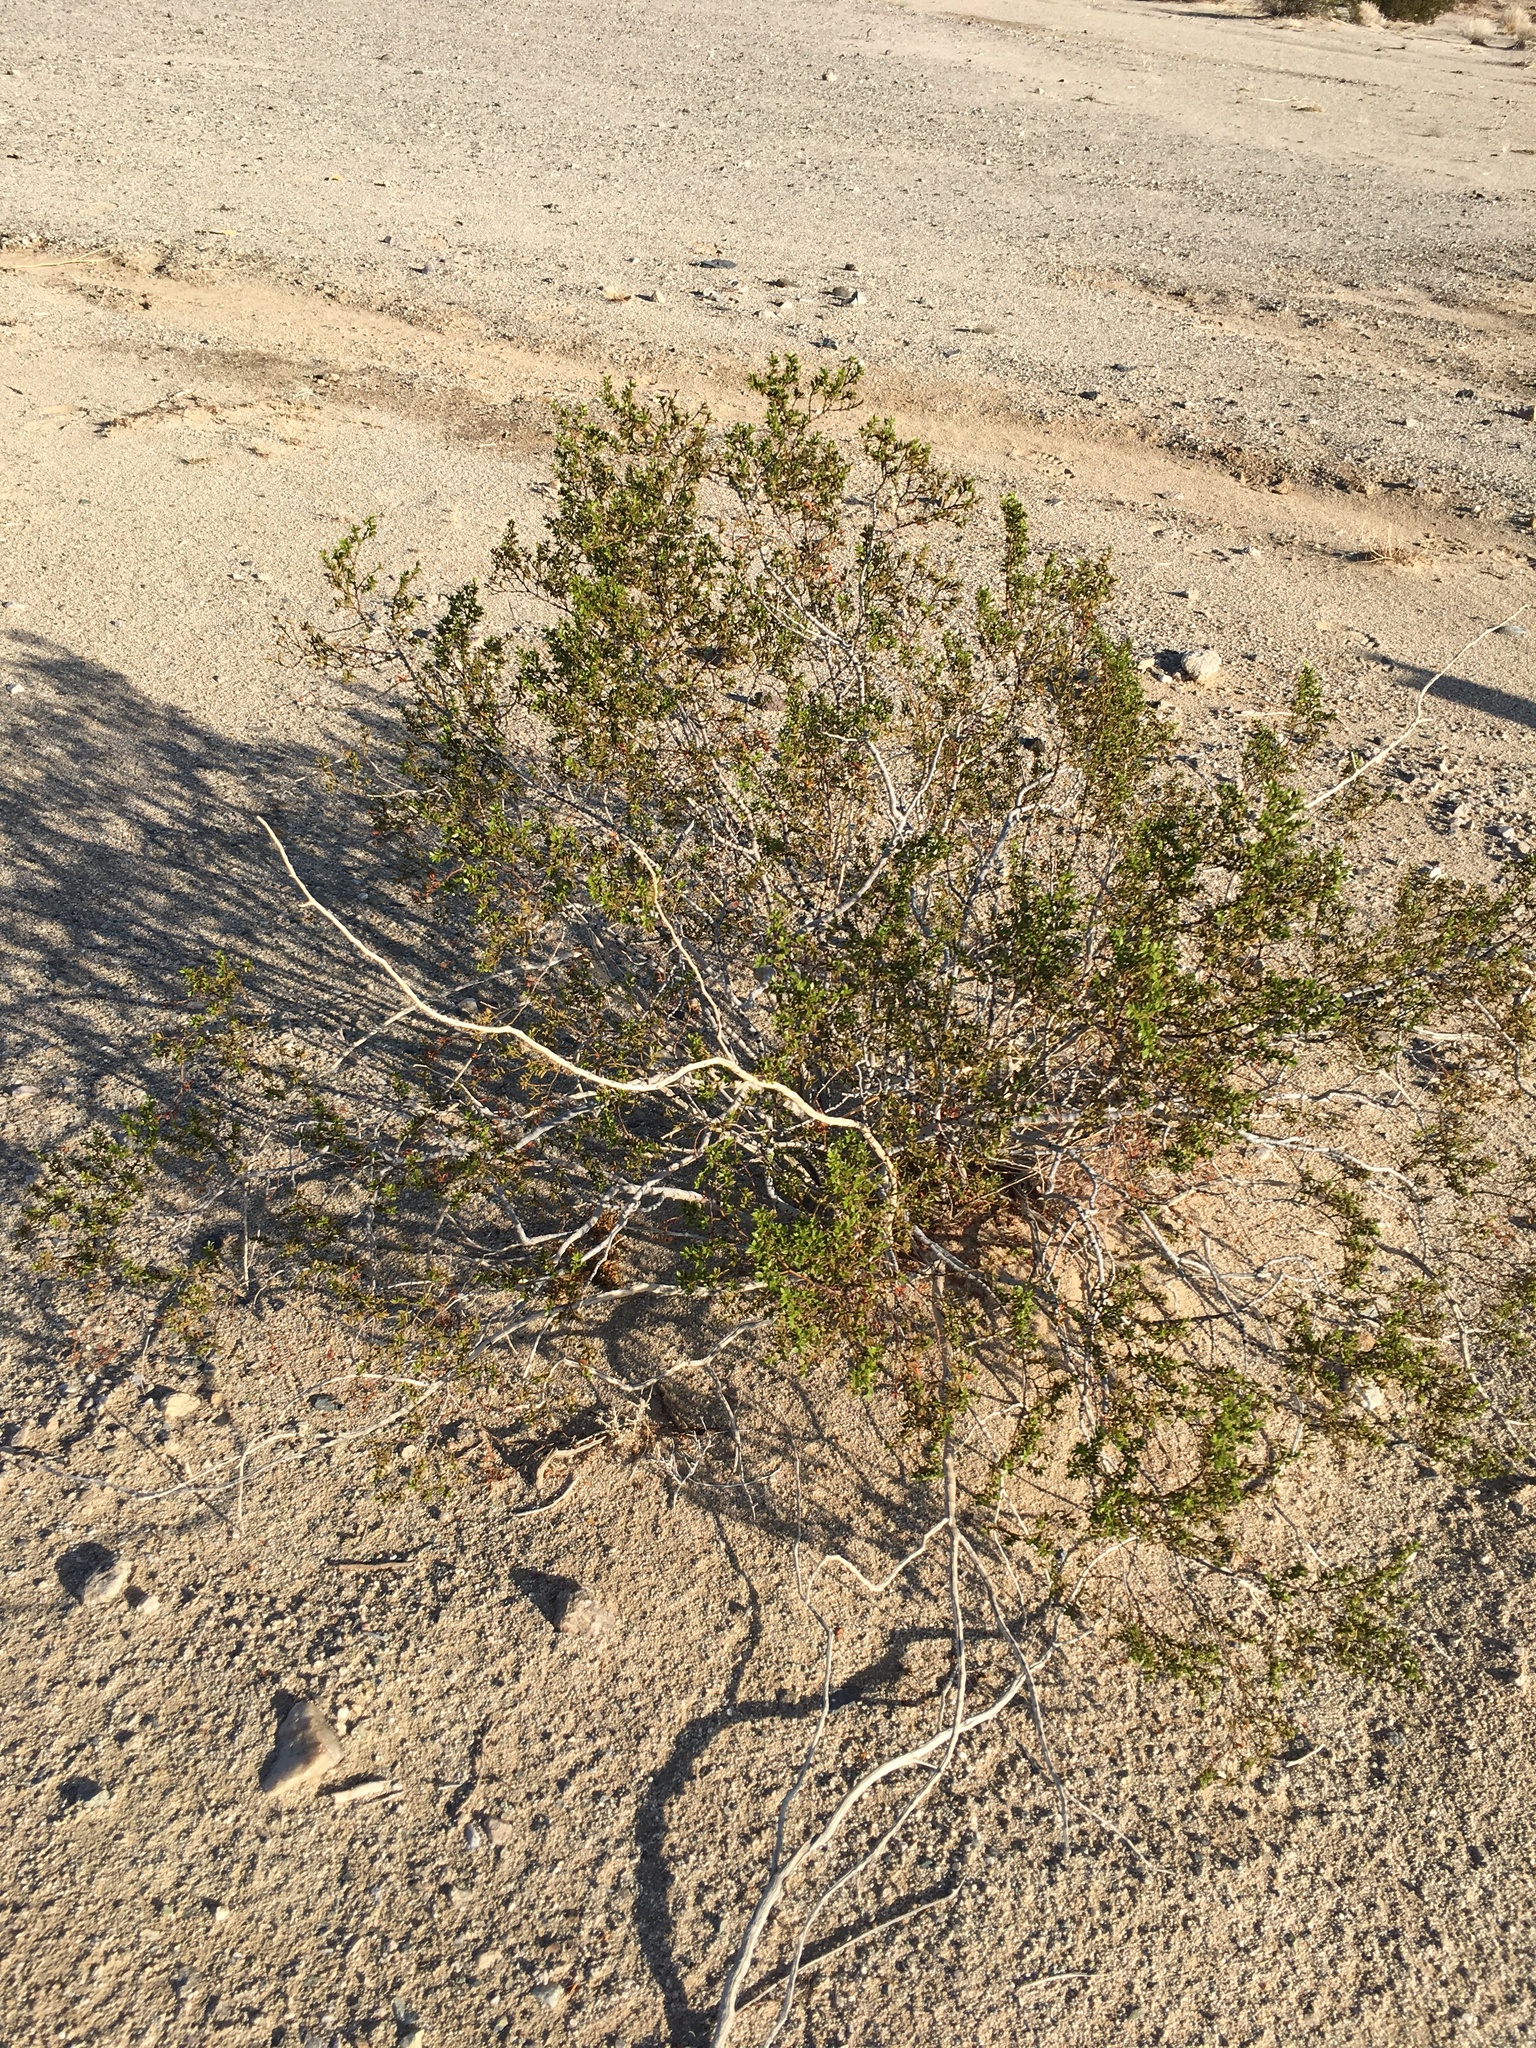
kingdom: Plantae
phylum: Tracheophyta
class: Magnoliopsida
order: Zygophyllales
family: Zygophyllaceae
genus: Larrea
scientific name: Larrea tridentata
